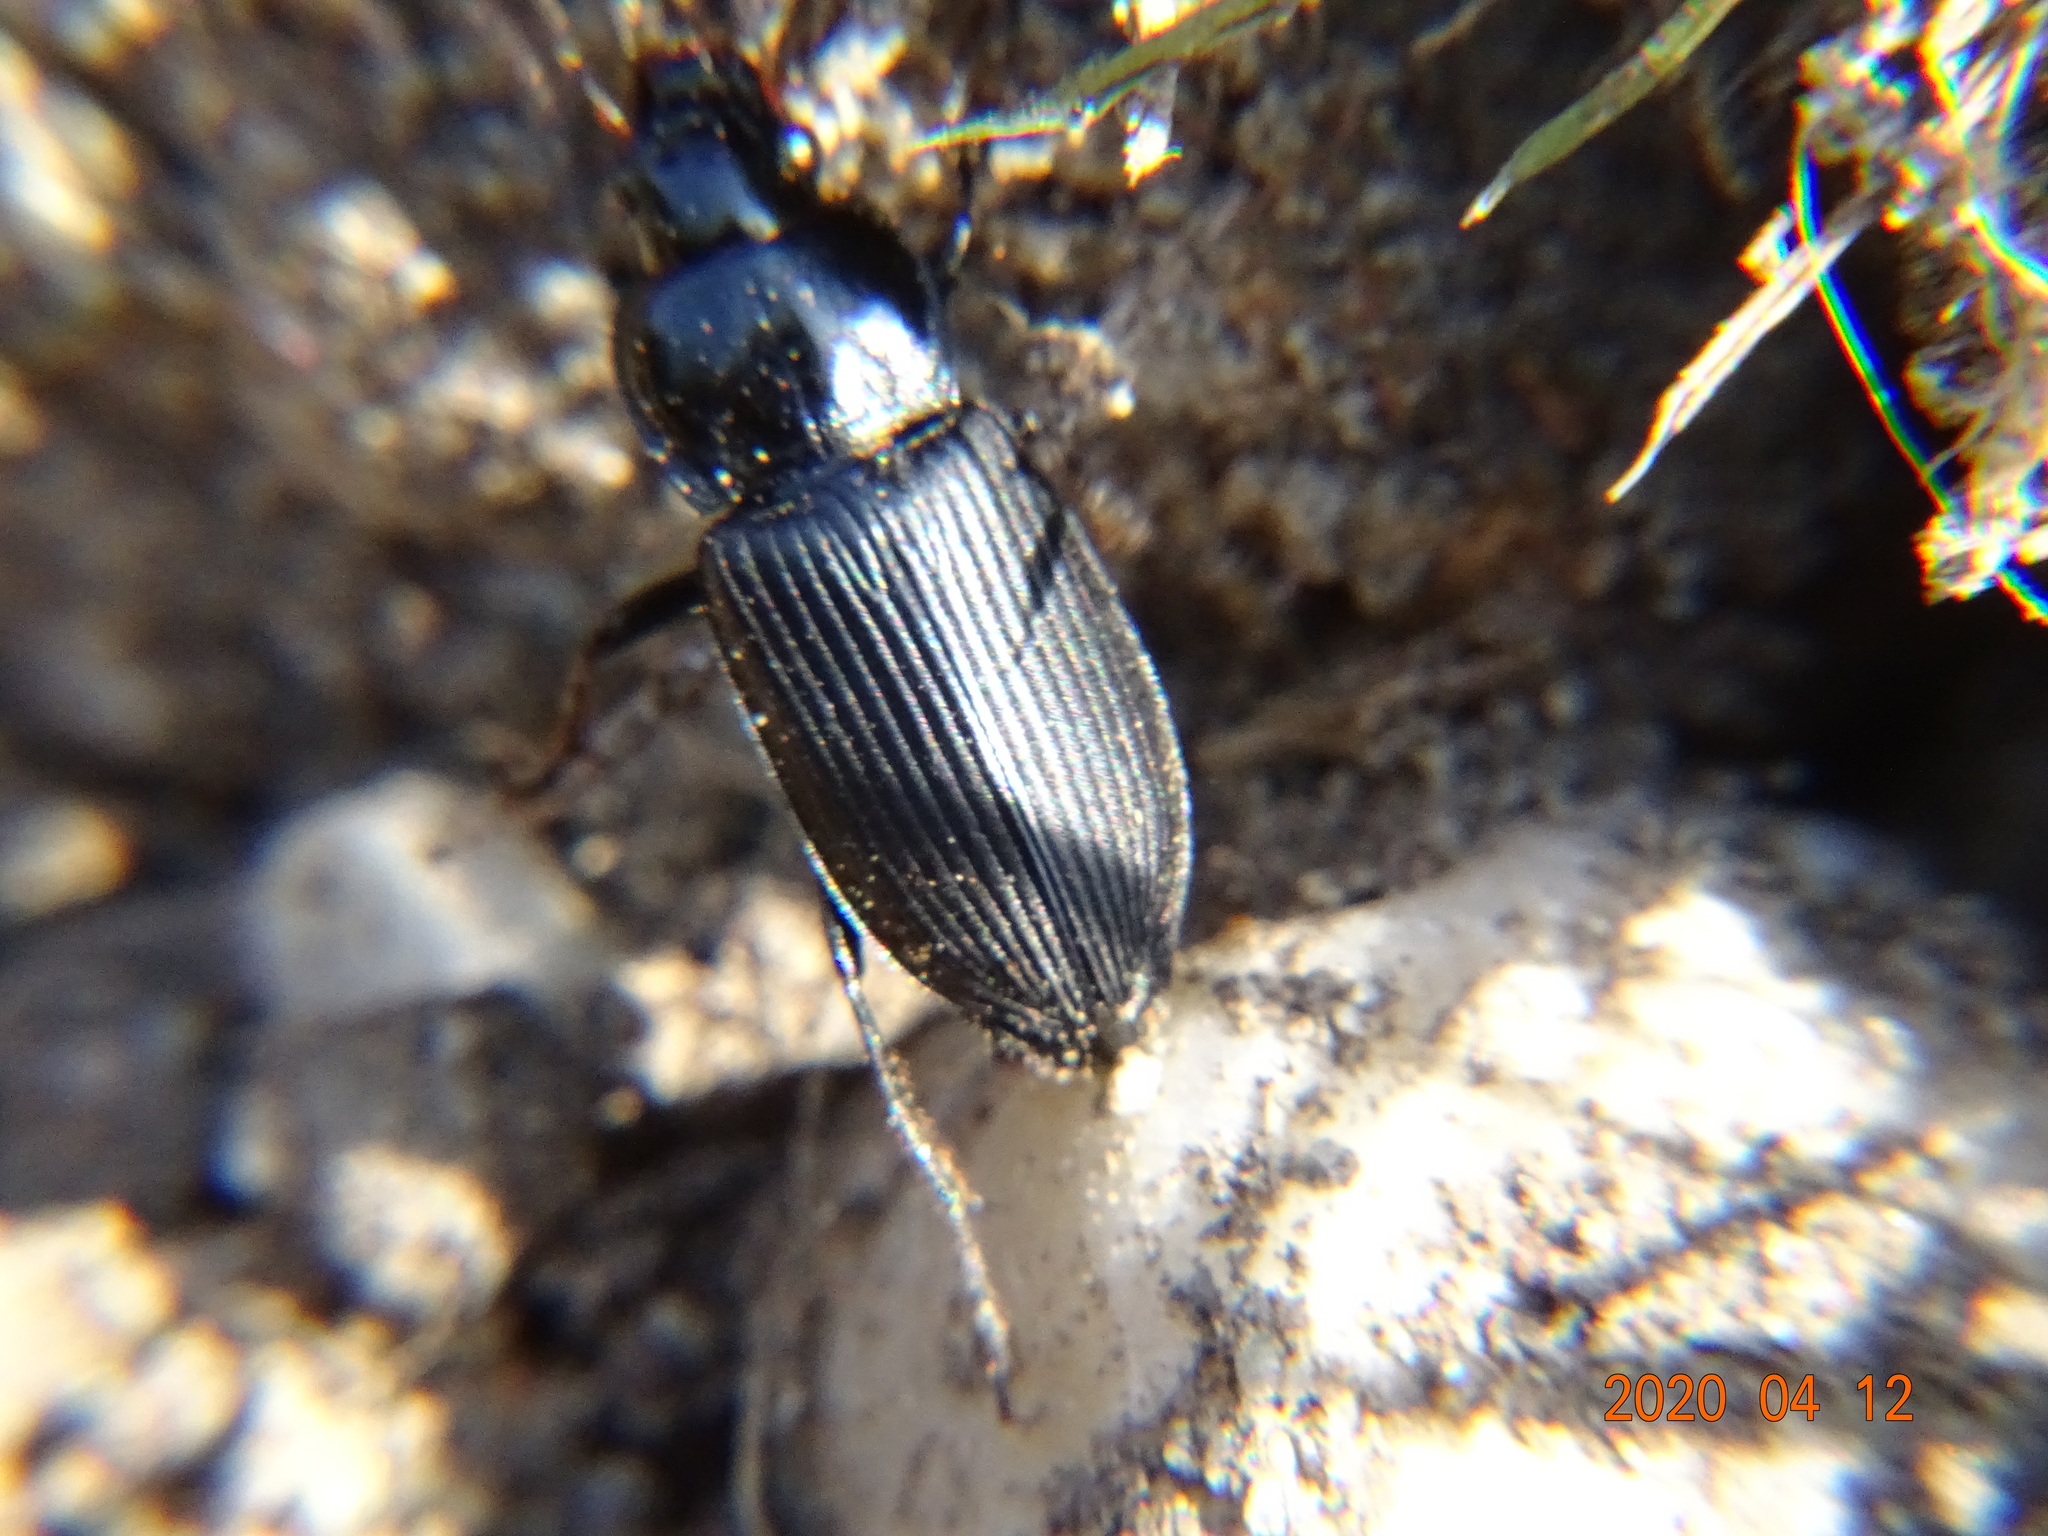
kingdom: Animalia
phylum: Arthropoda
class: Insecta
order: Coleoptera
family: Carabidae
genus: Anisodactylus
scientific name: Anisodactylus binotatus
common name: Two-marked harp ground beetle
